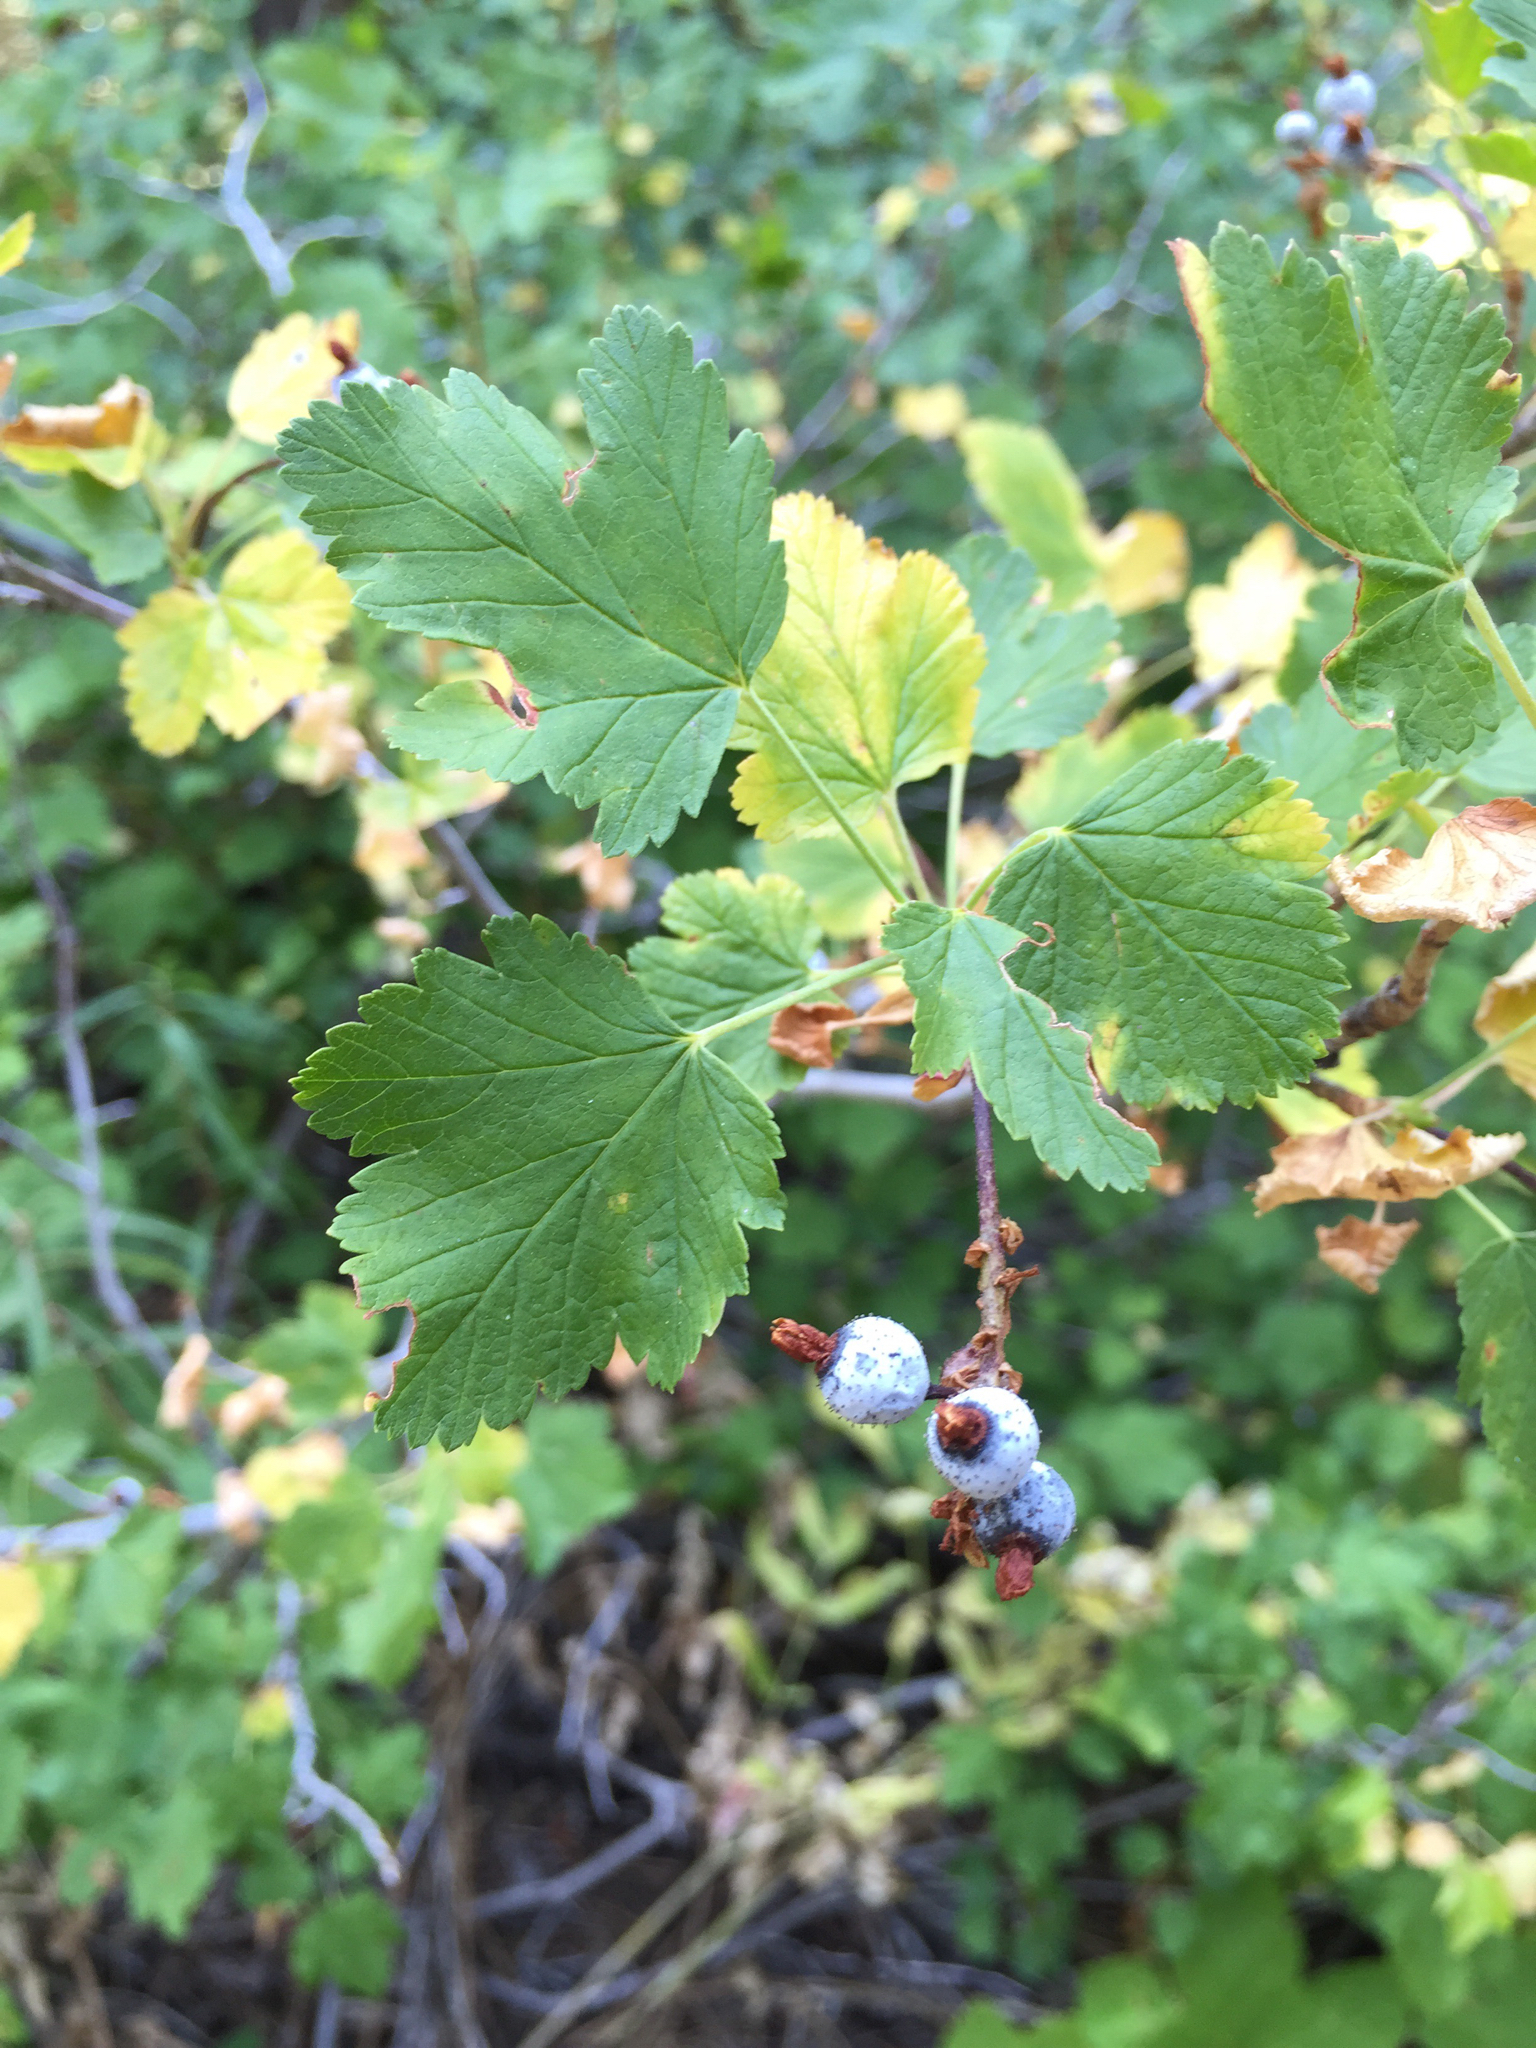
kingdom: Plantae
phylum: Tracheophyta
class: Magnoliopsida
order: Saxifragales
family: Grossulariaceae
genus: Ribes
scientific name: Ribes nevadense
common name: Mountain pink currant
